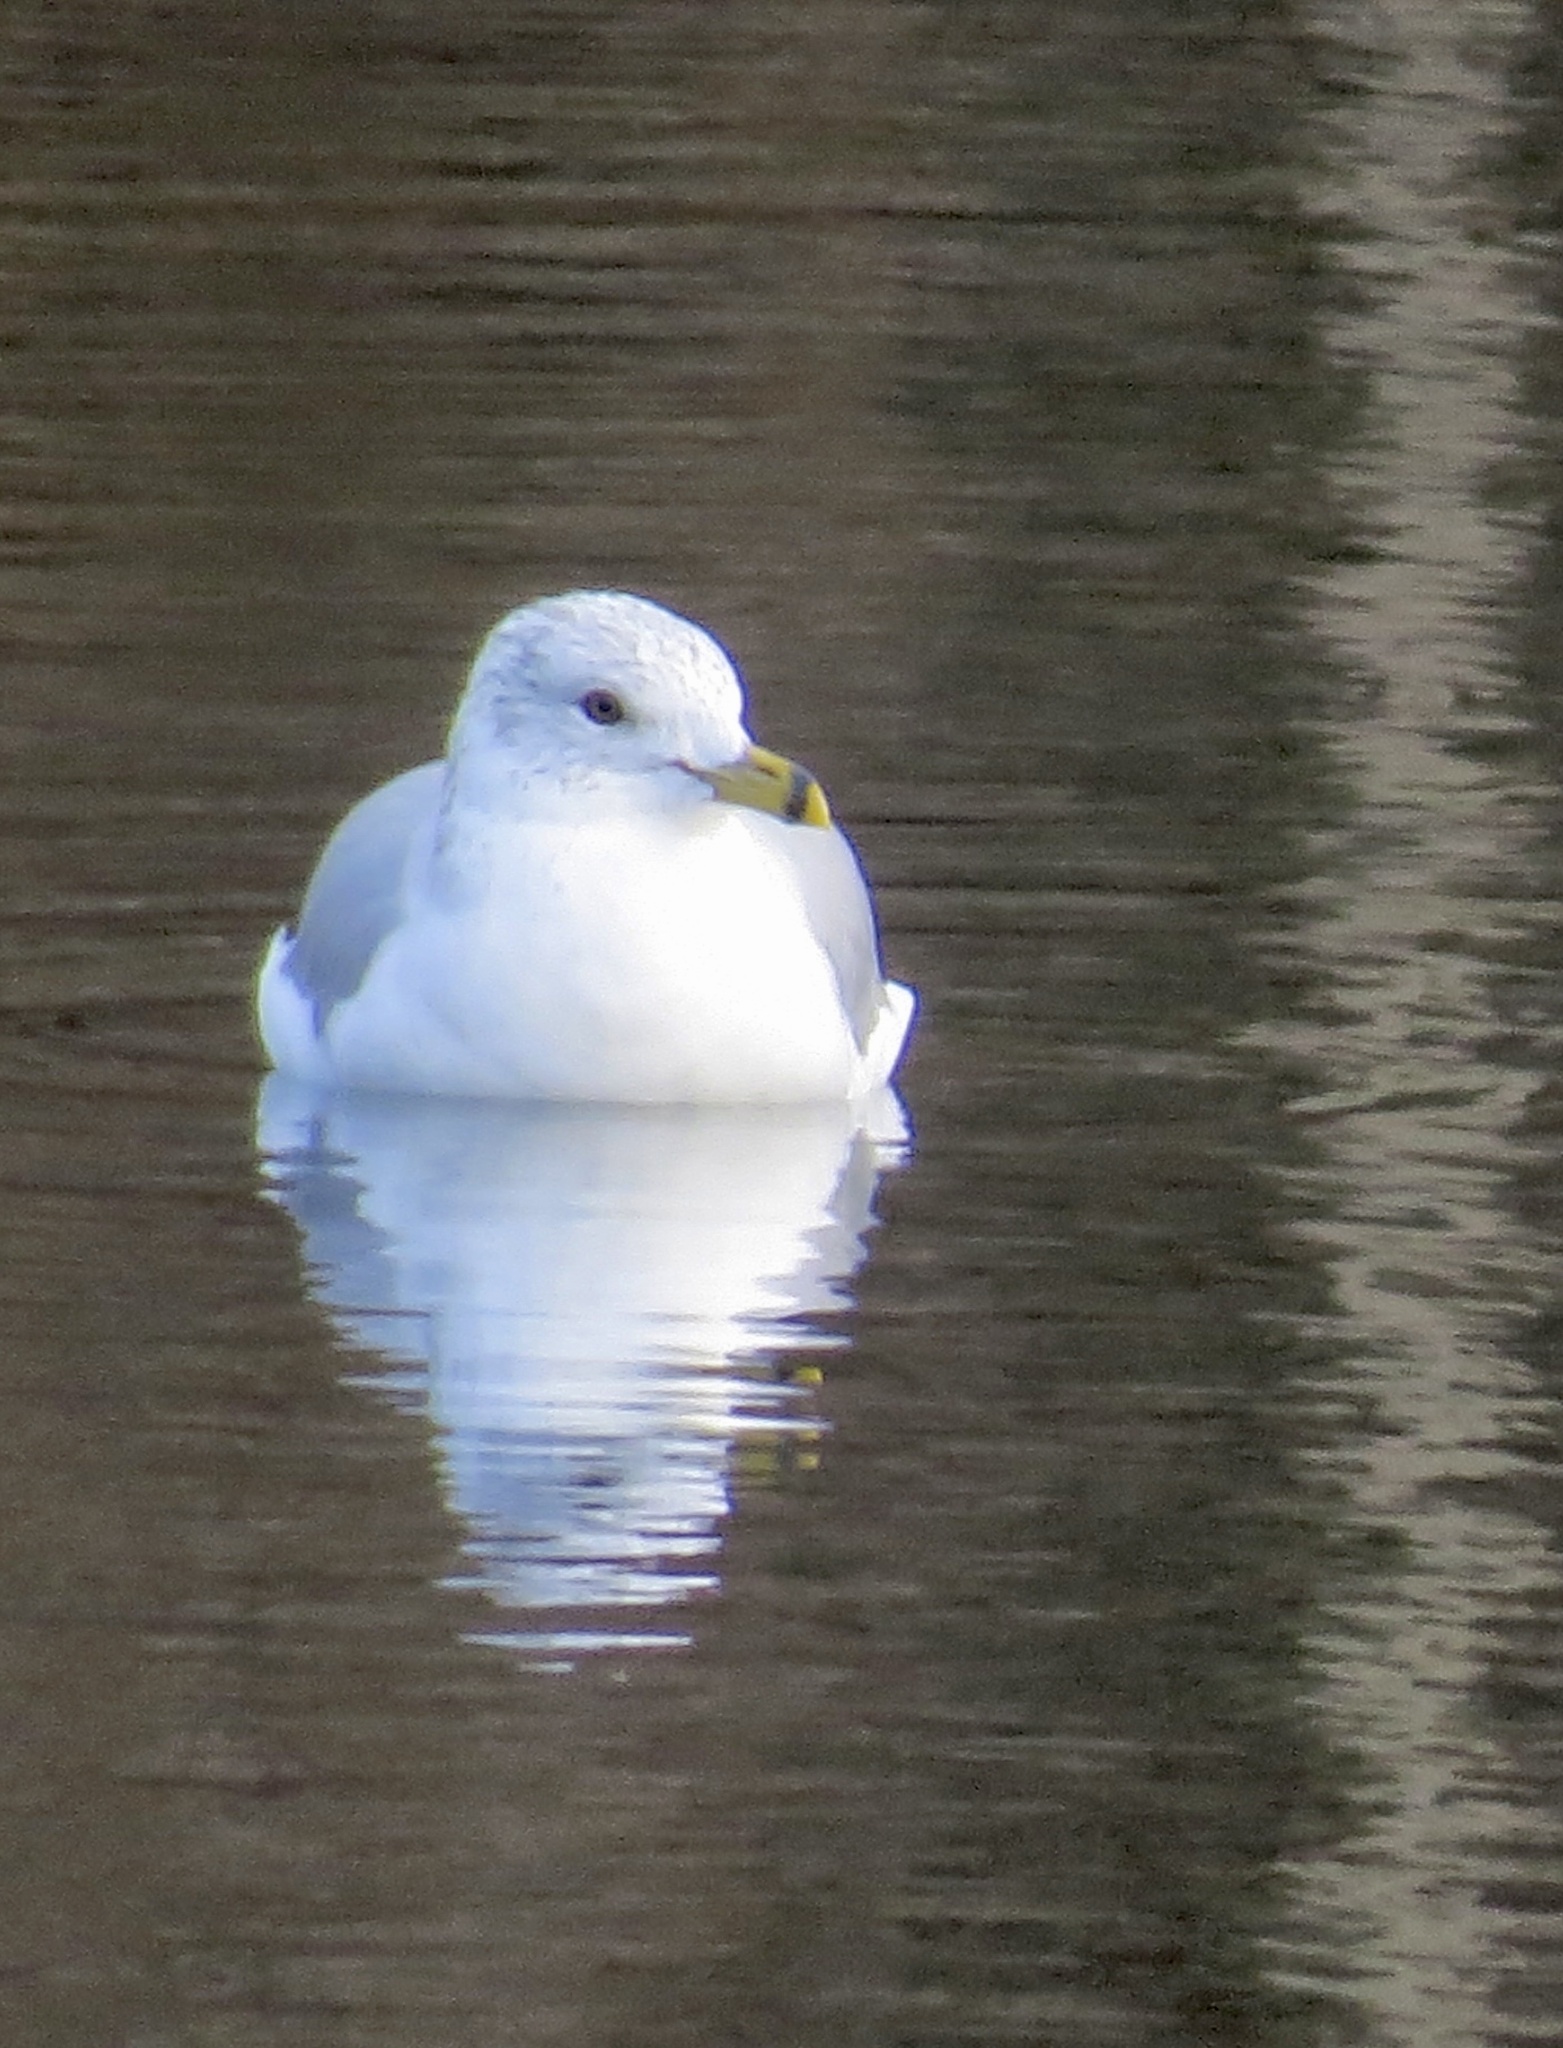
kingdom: Animalia
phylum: Chordata
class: Aves
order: Charadriiformes
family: Laridae
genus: Larus
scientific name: Larus delawarensis
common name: Ring-billed gull
